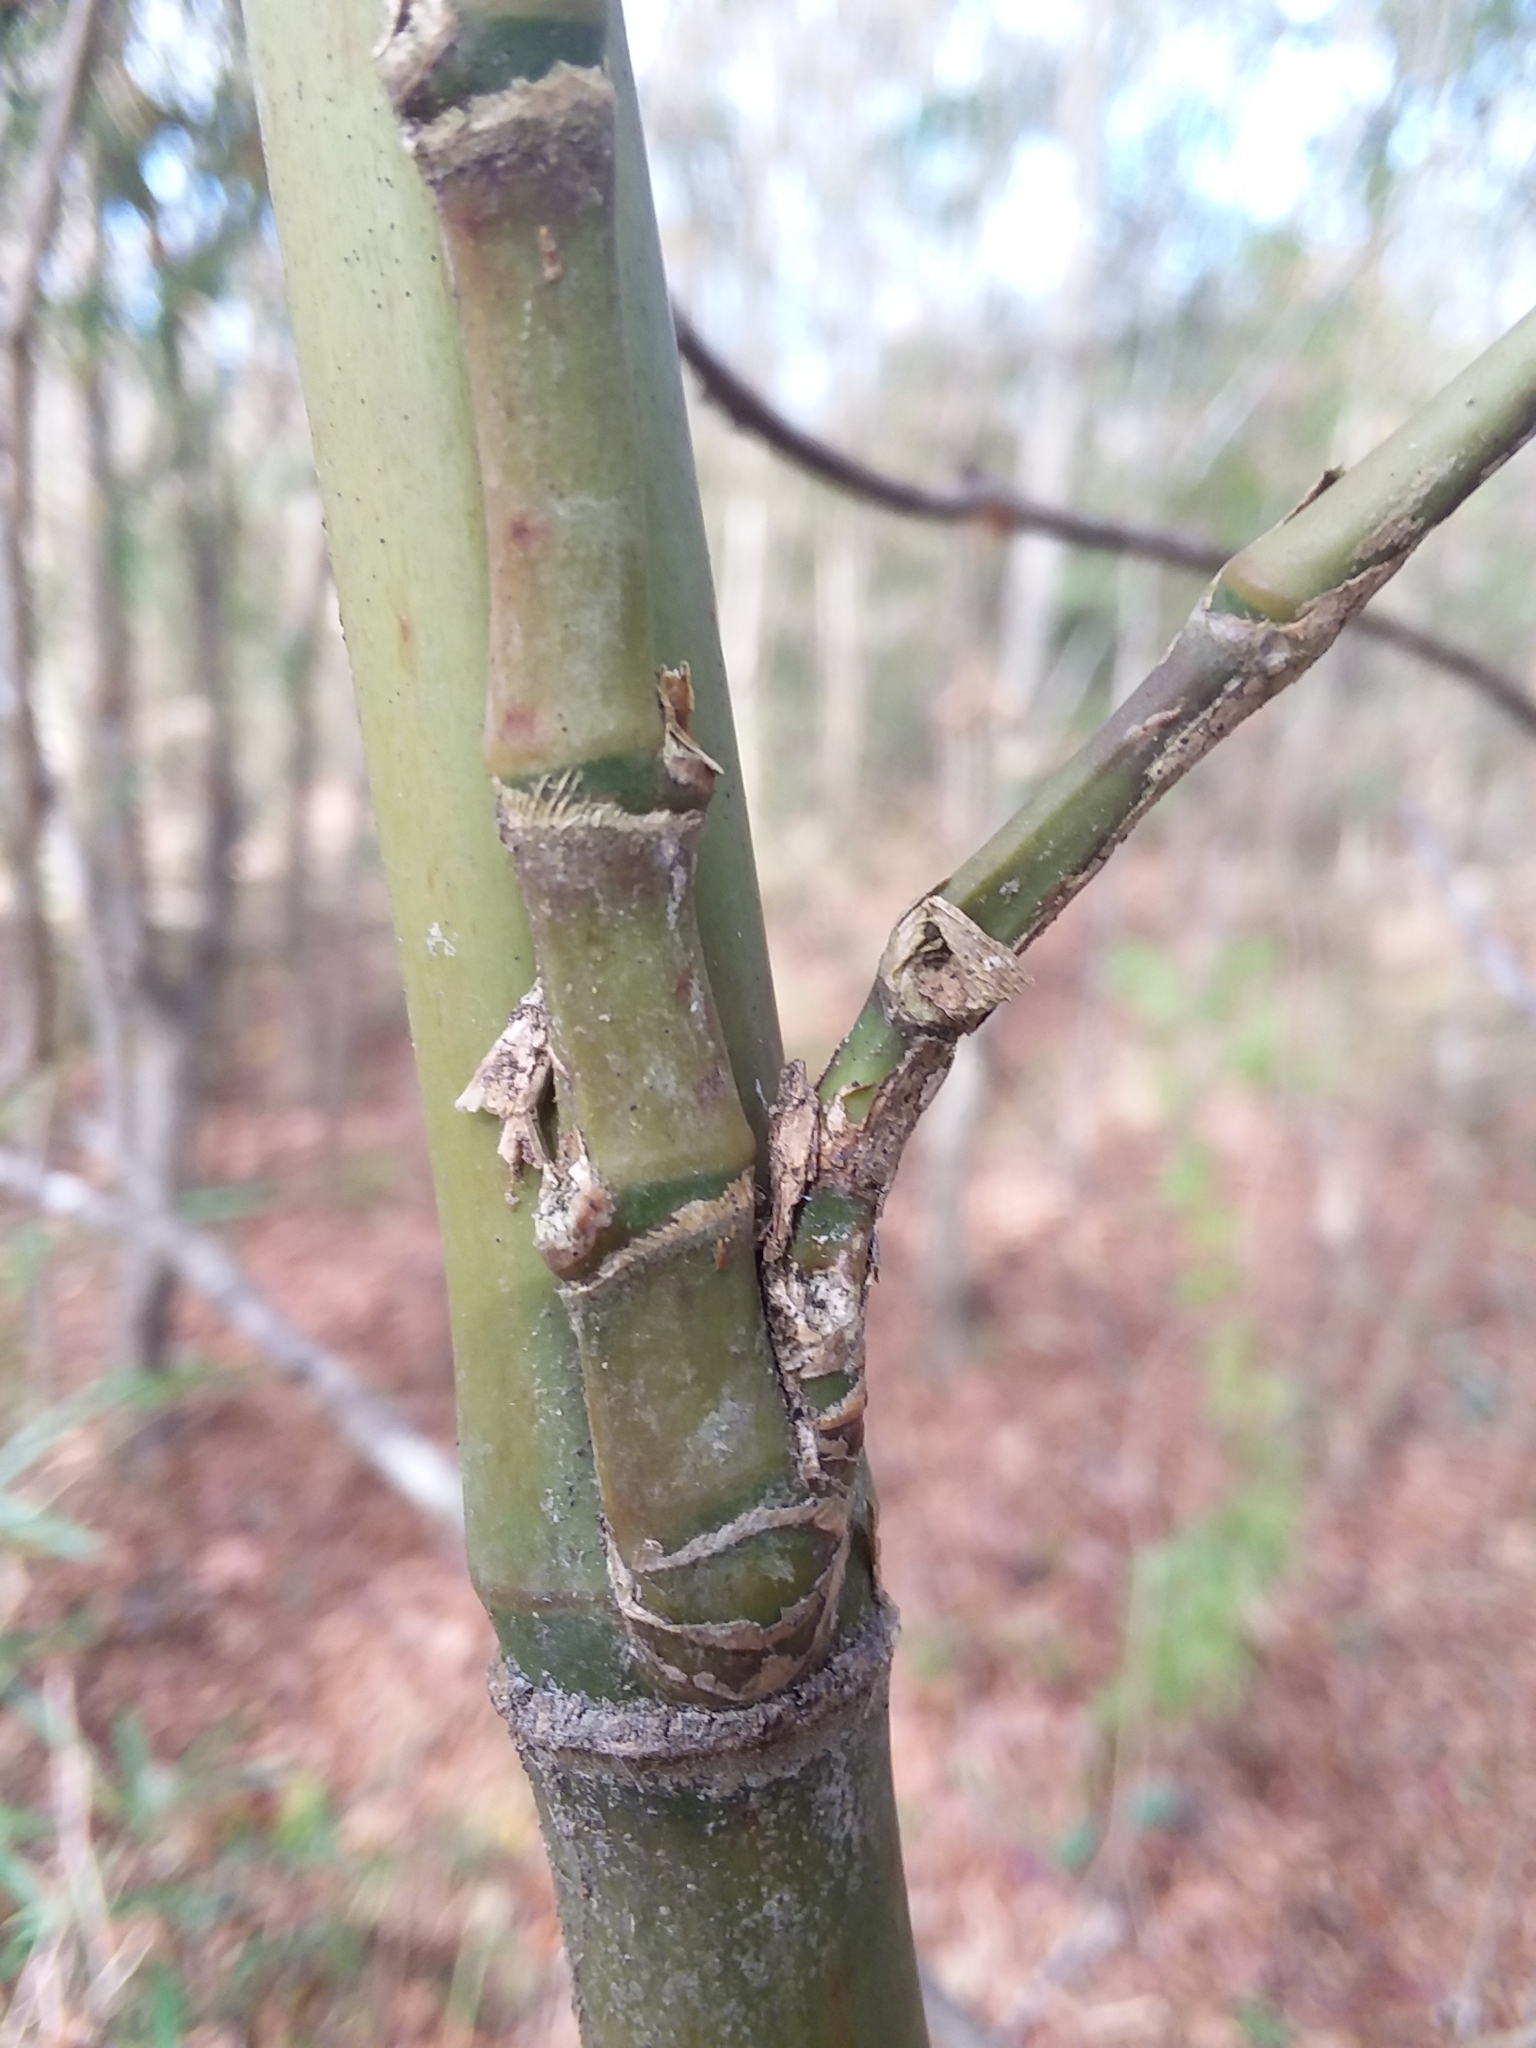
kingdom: Plantae
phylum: Tracheophyta
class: Liliopsida
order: Poales
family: Poaceae
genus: Arundinaria
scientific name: Arundinaria gigantea
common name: Giant cane
